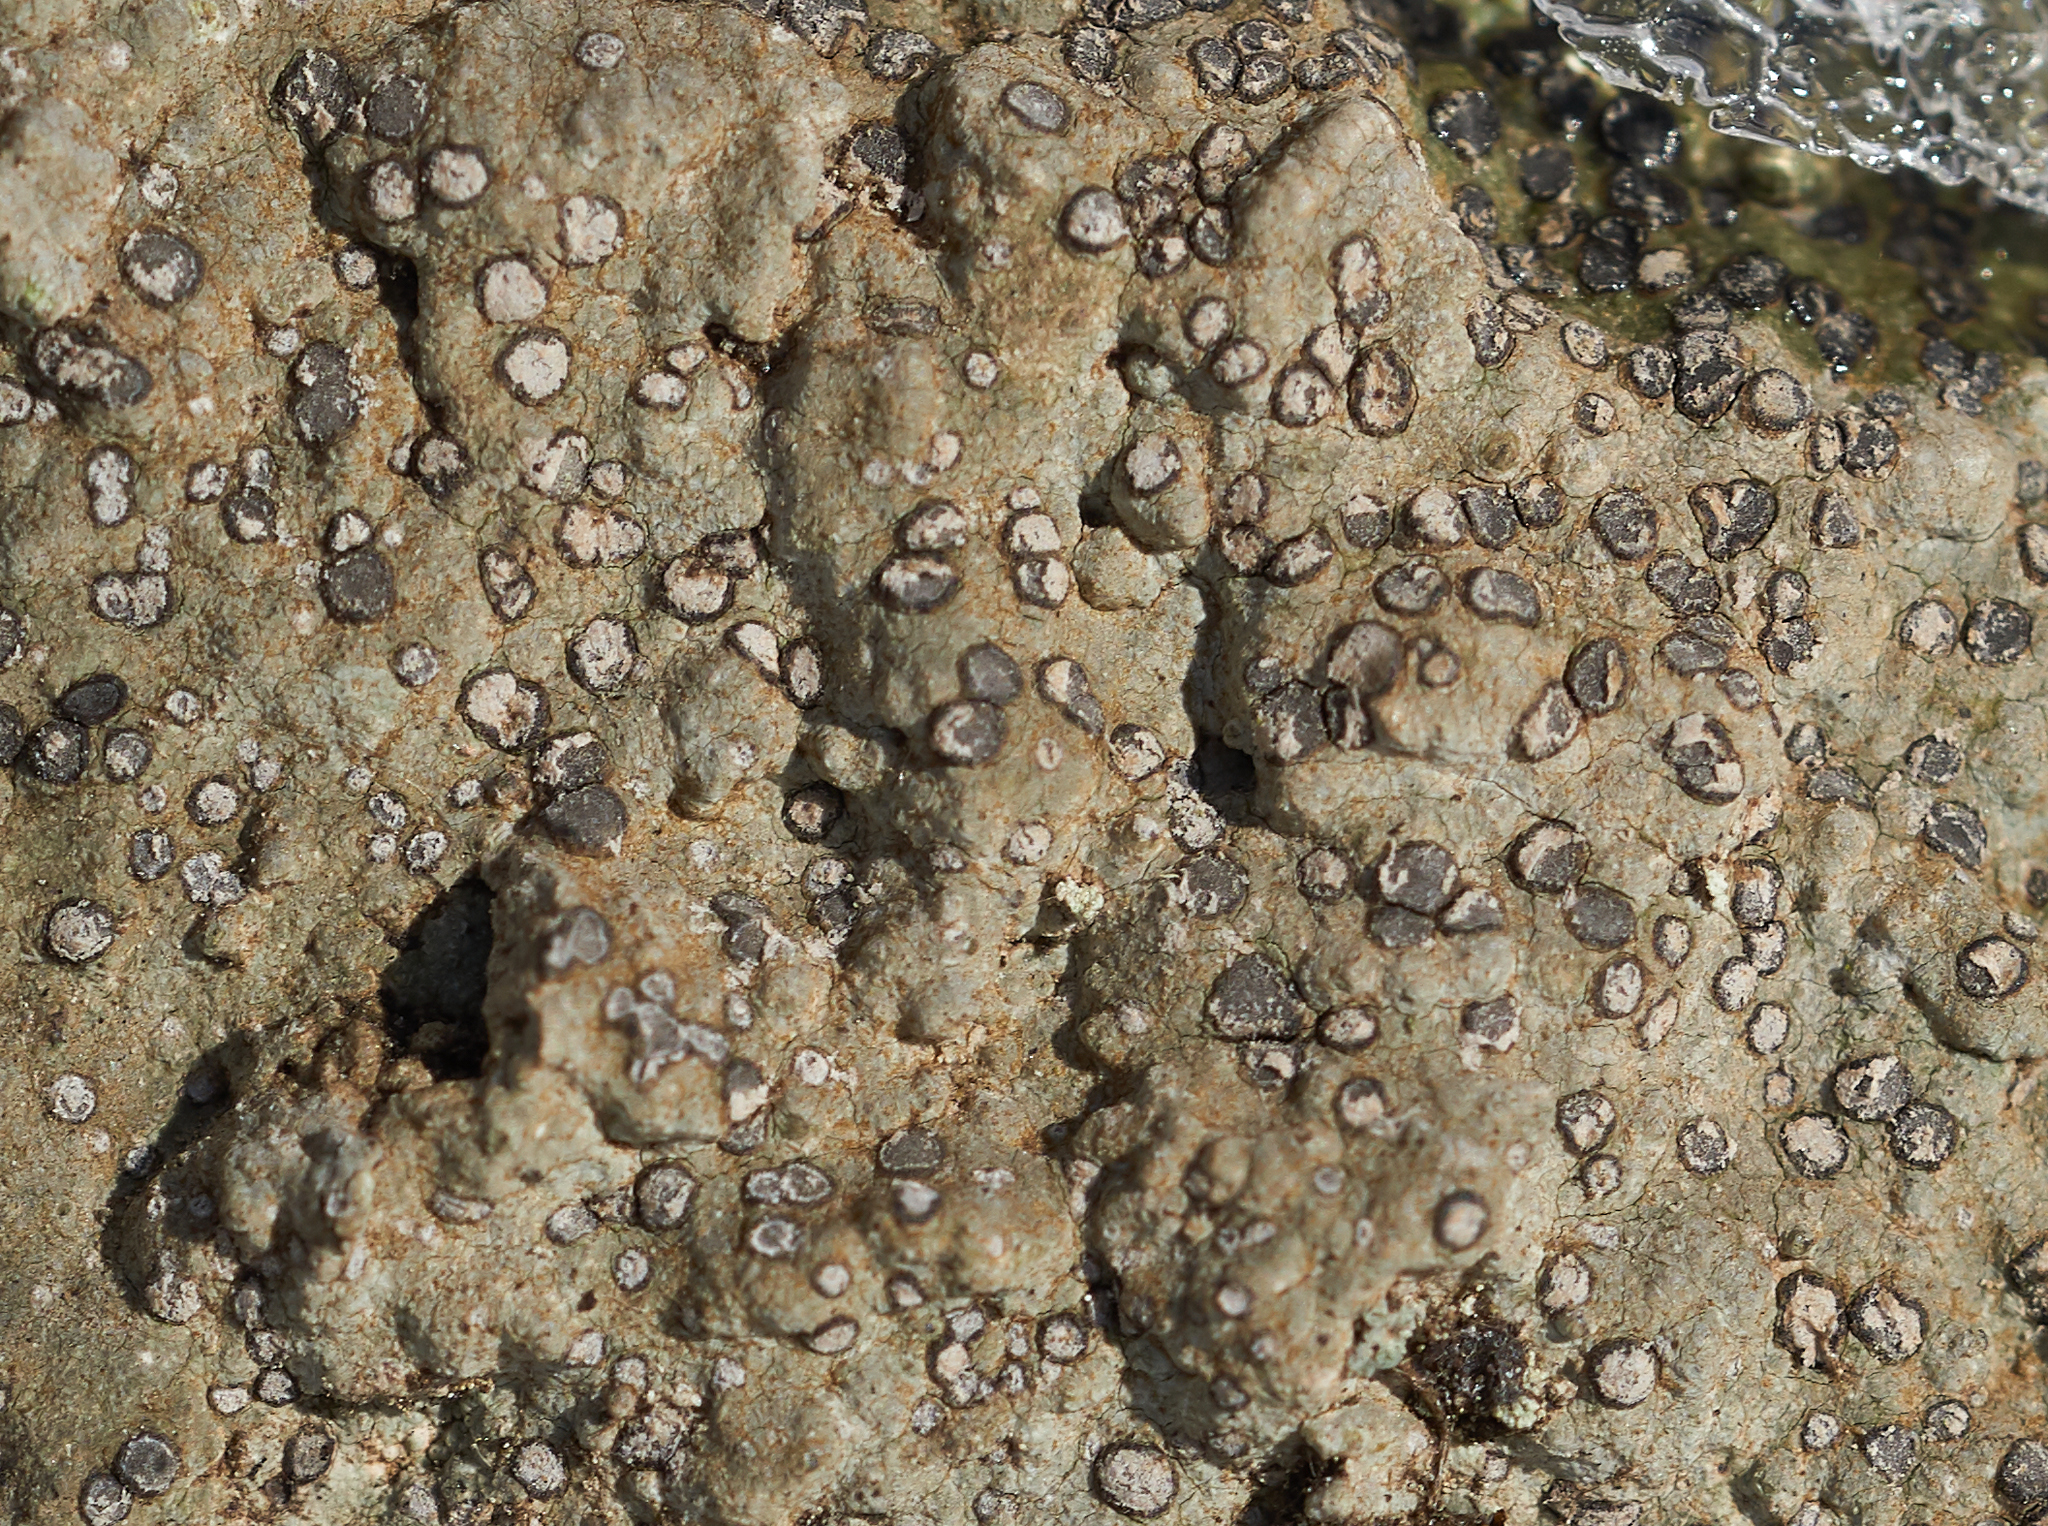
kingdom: Fungi
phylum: Ascomycota
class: Lecanoromycetes
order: Lecideales
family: Lecideaceae
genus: Porpidia
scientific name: Porpidia albocaerulescens
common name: Smokey-eyed boulder lichen
